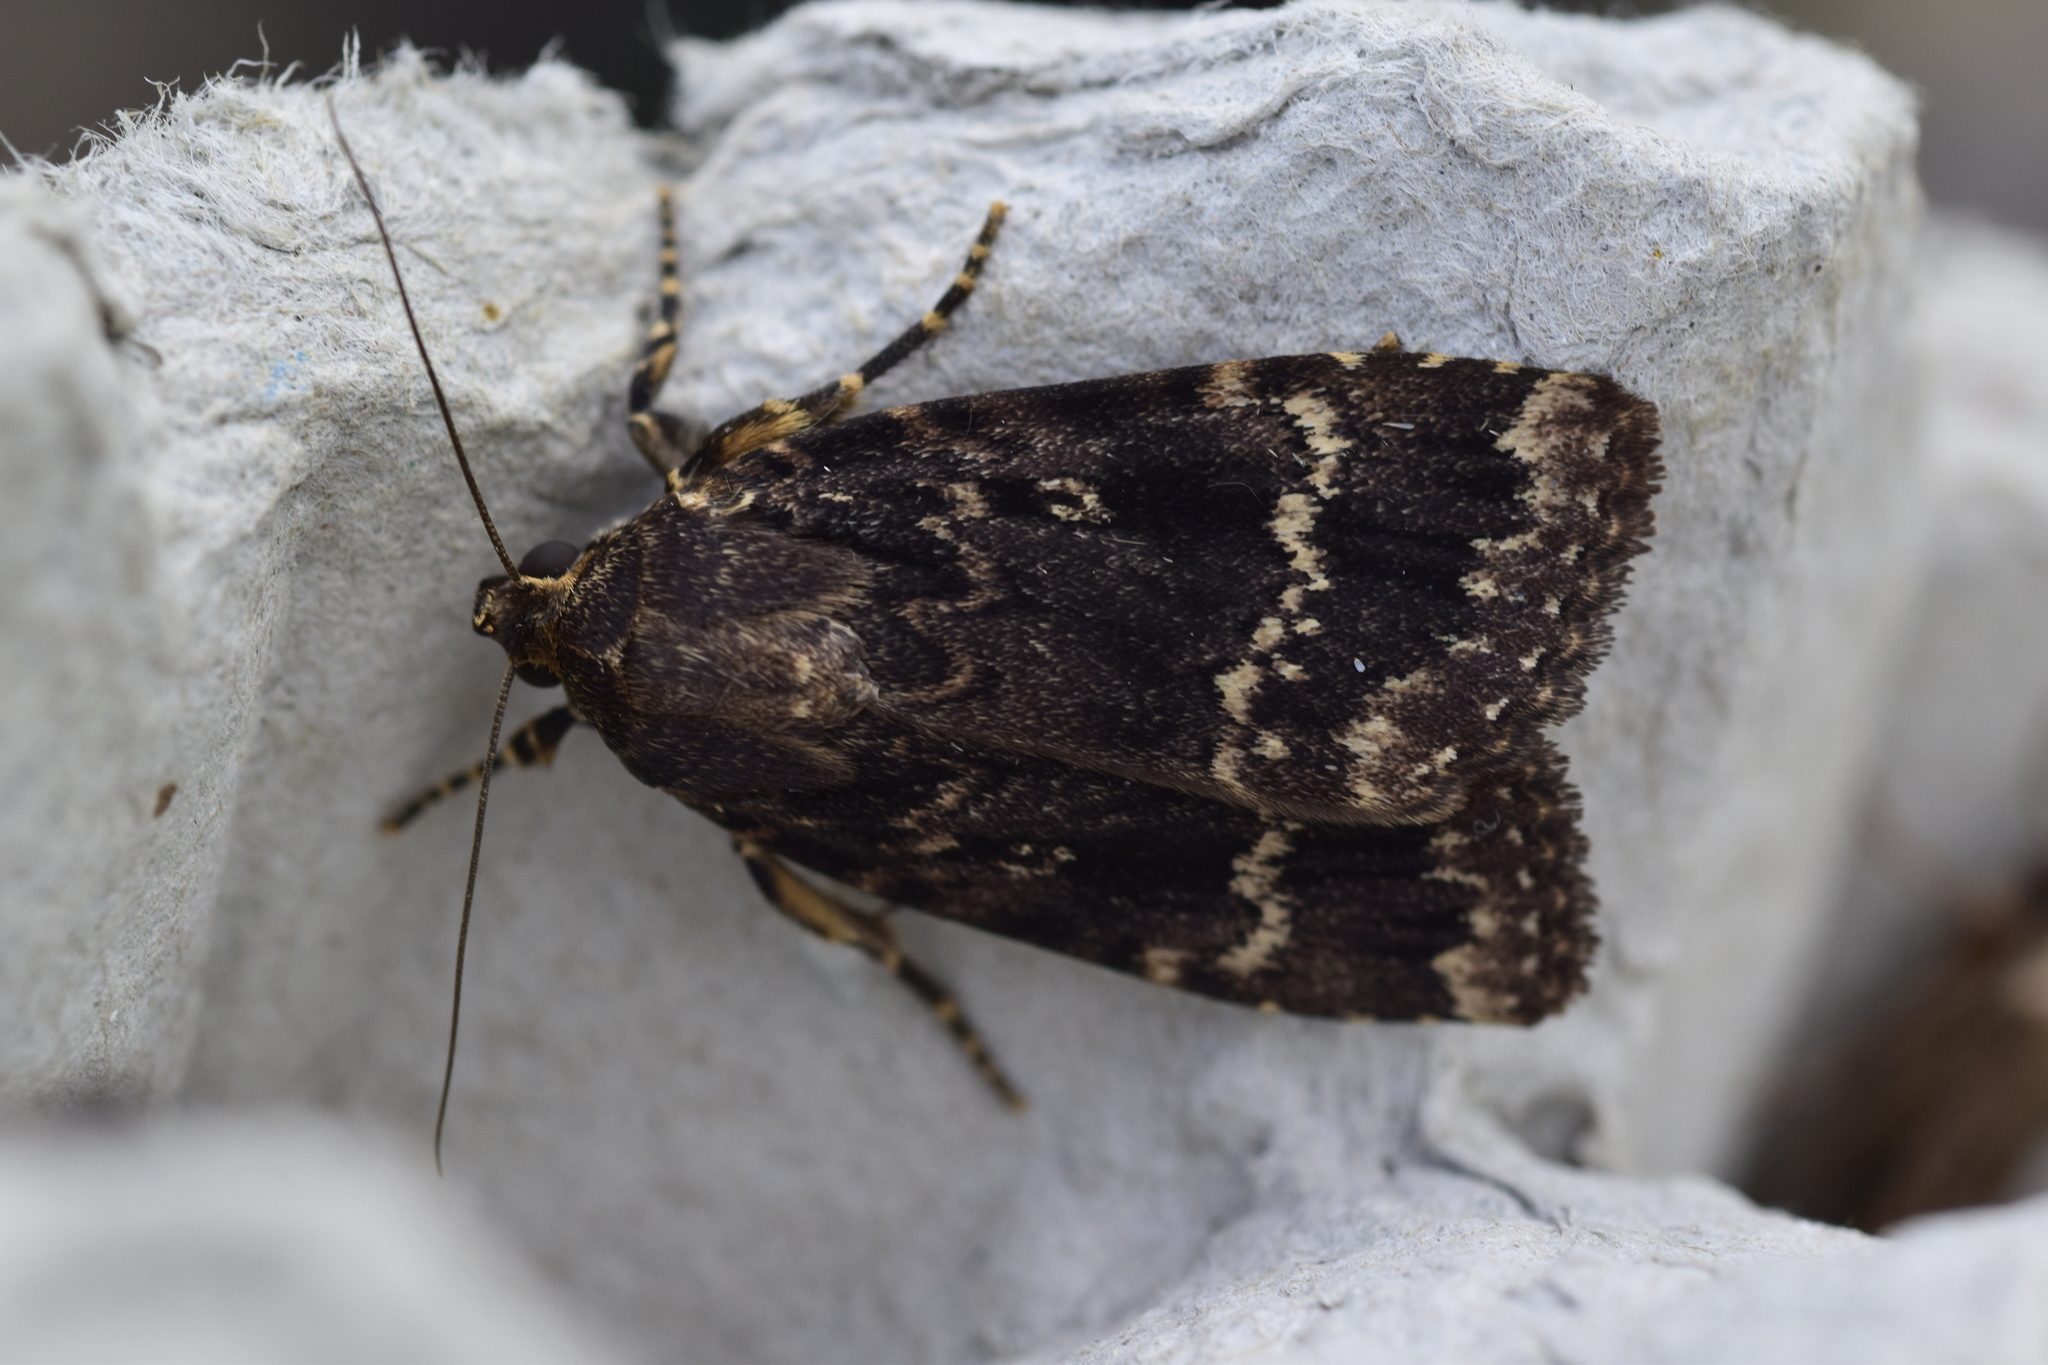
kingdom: Animalia
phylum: Arthropoda
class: Insecta
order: Lepidoptera
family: Noctuidae
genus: Amphipyra
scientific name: Amphipyra pyramidea
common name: Copper underwing
